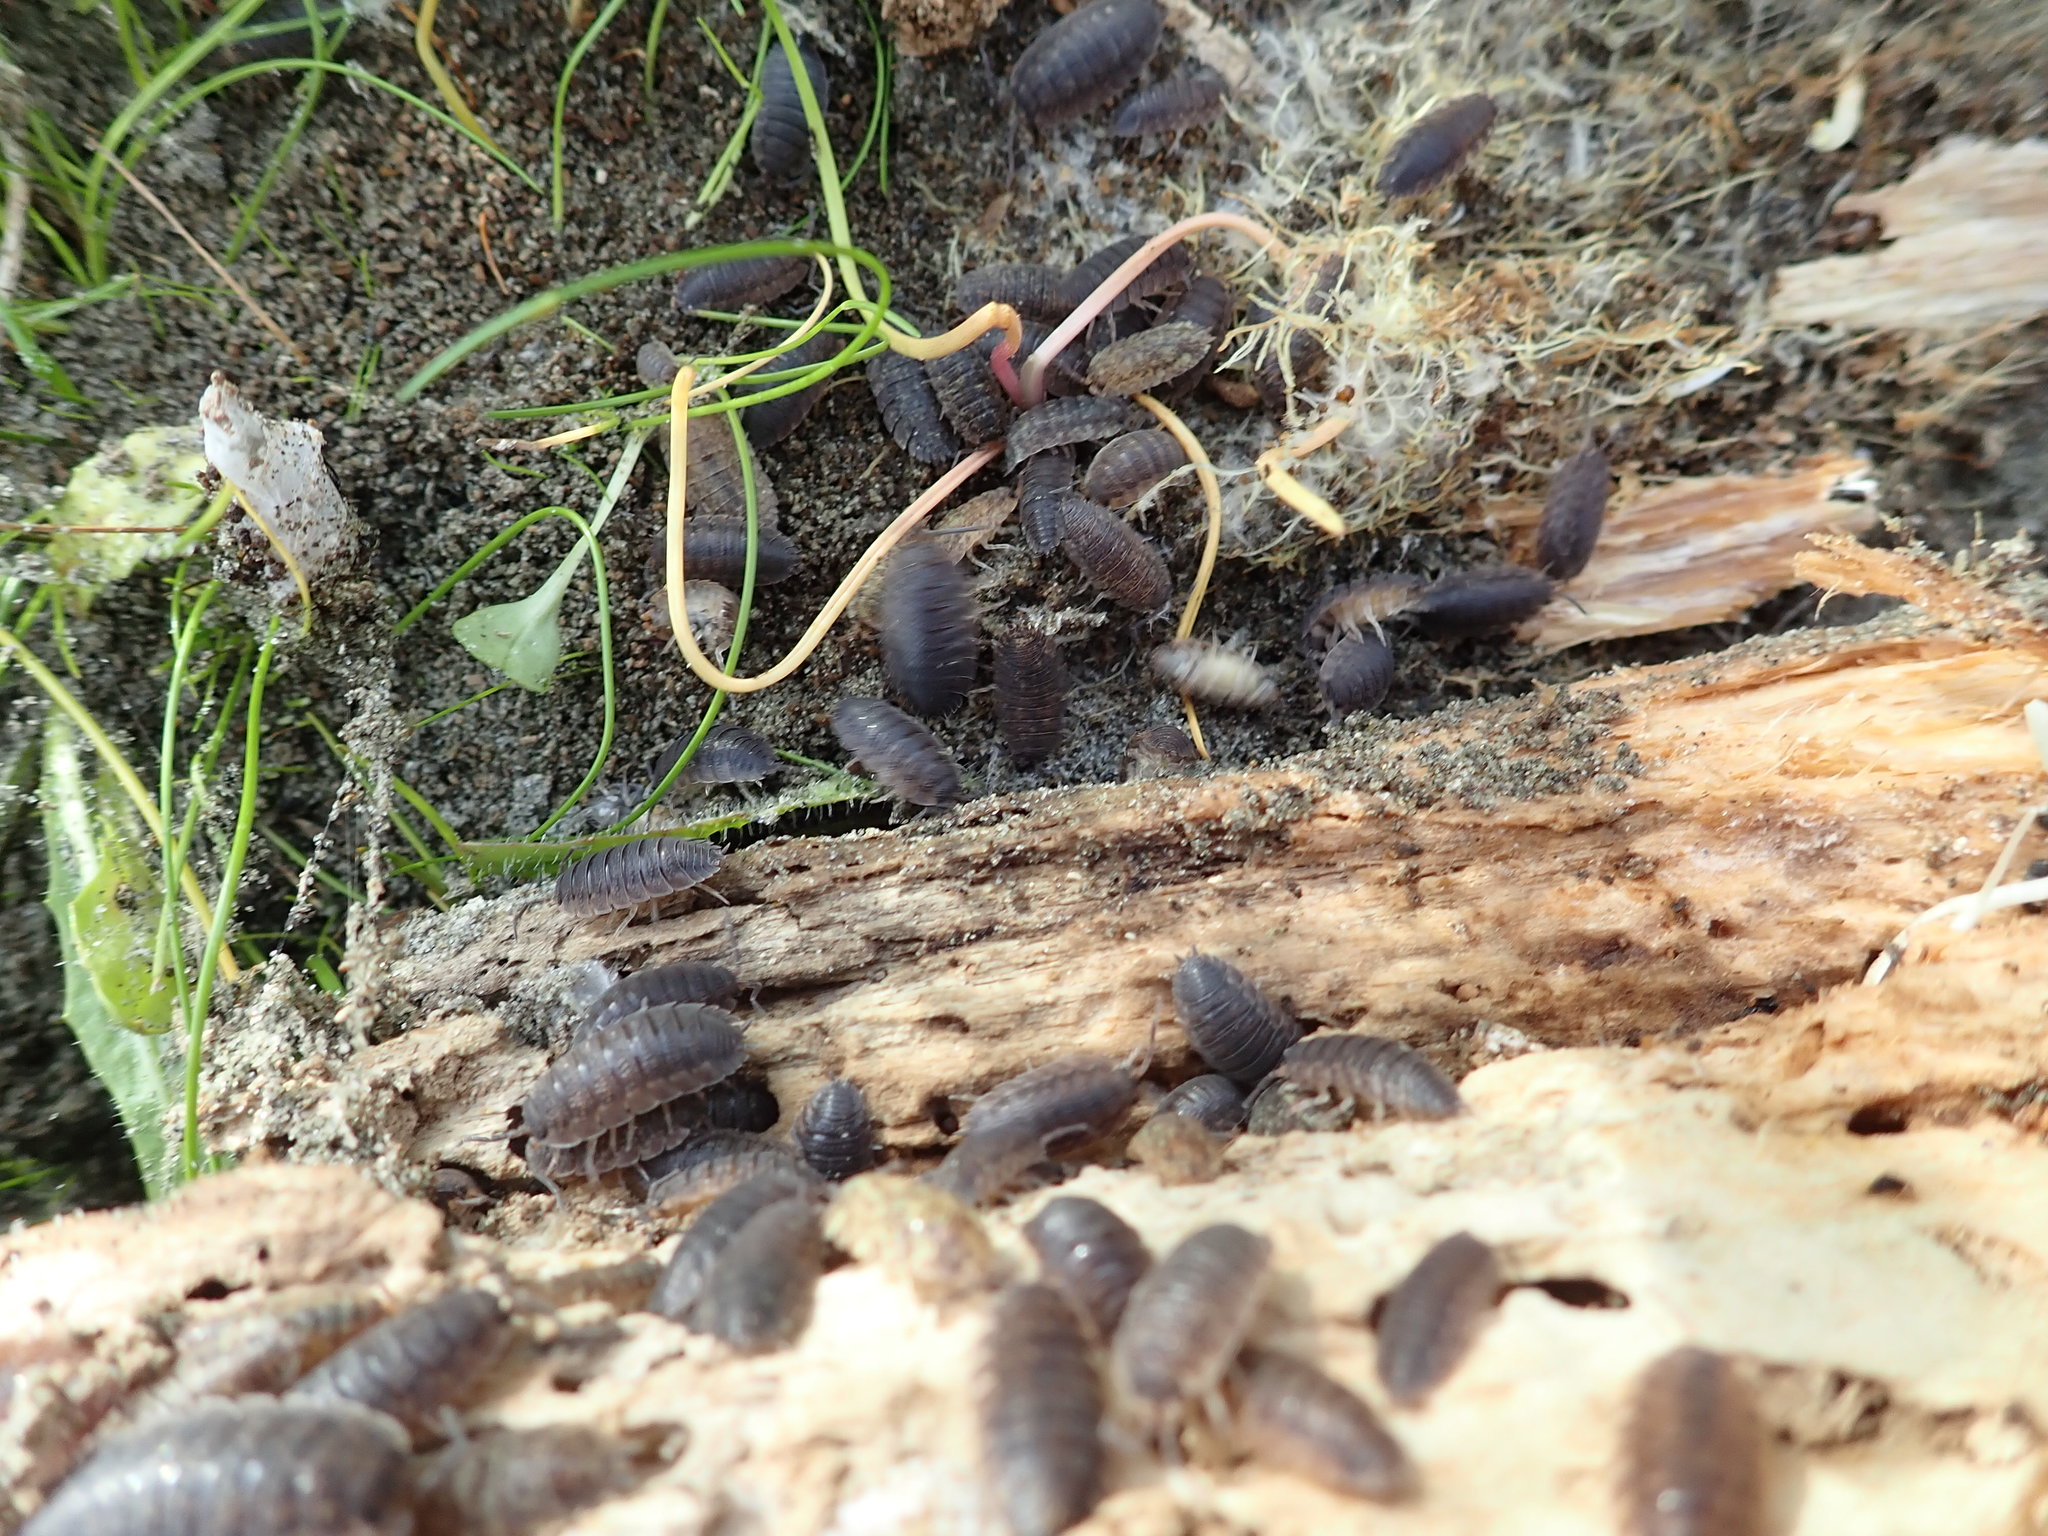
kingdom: Animalia
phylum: Arthropoda
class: Malacostraca
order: Isopoda
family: Porcellionidae
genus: Porcellio
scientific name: Porcellio scaber
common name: Common rough woodlouse
